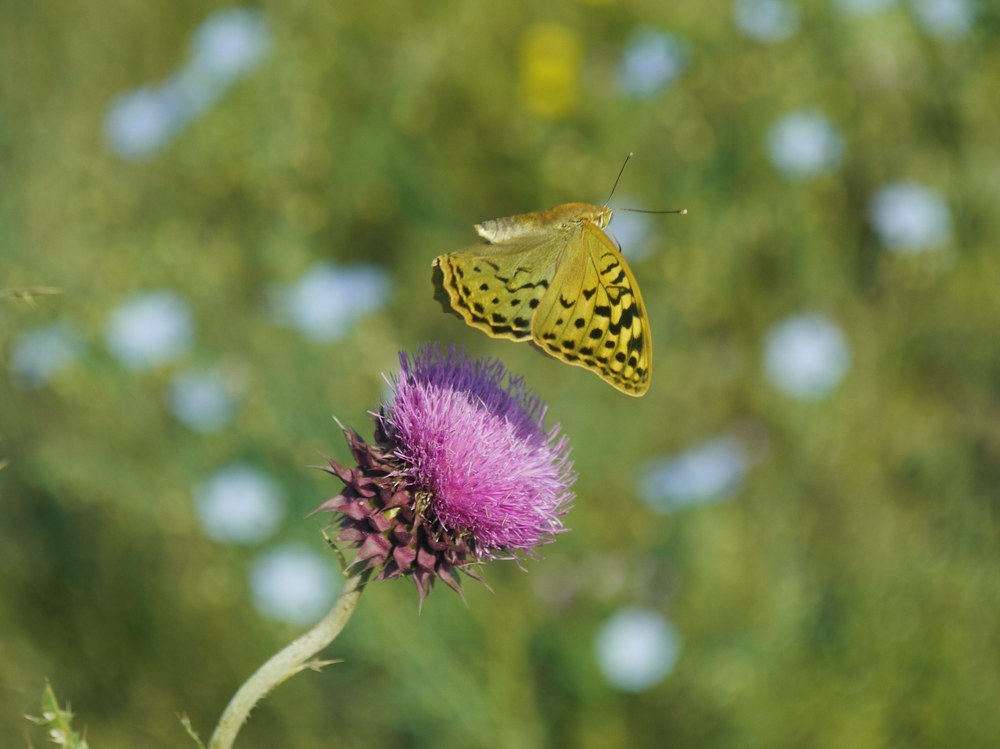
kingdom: Animalia
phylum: Arthropoda
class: Insecta
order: Lepidoptera
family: Nymphalidae
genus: Damora
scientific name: Damora pandora
